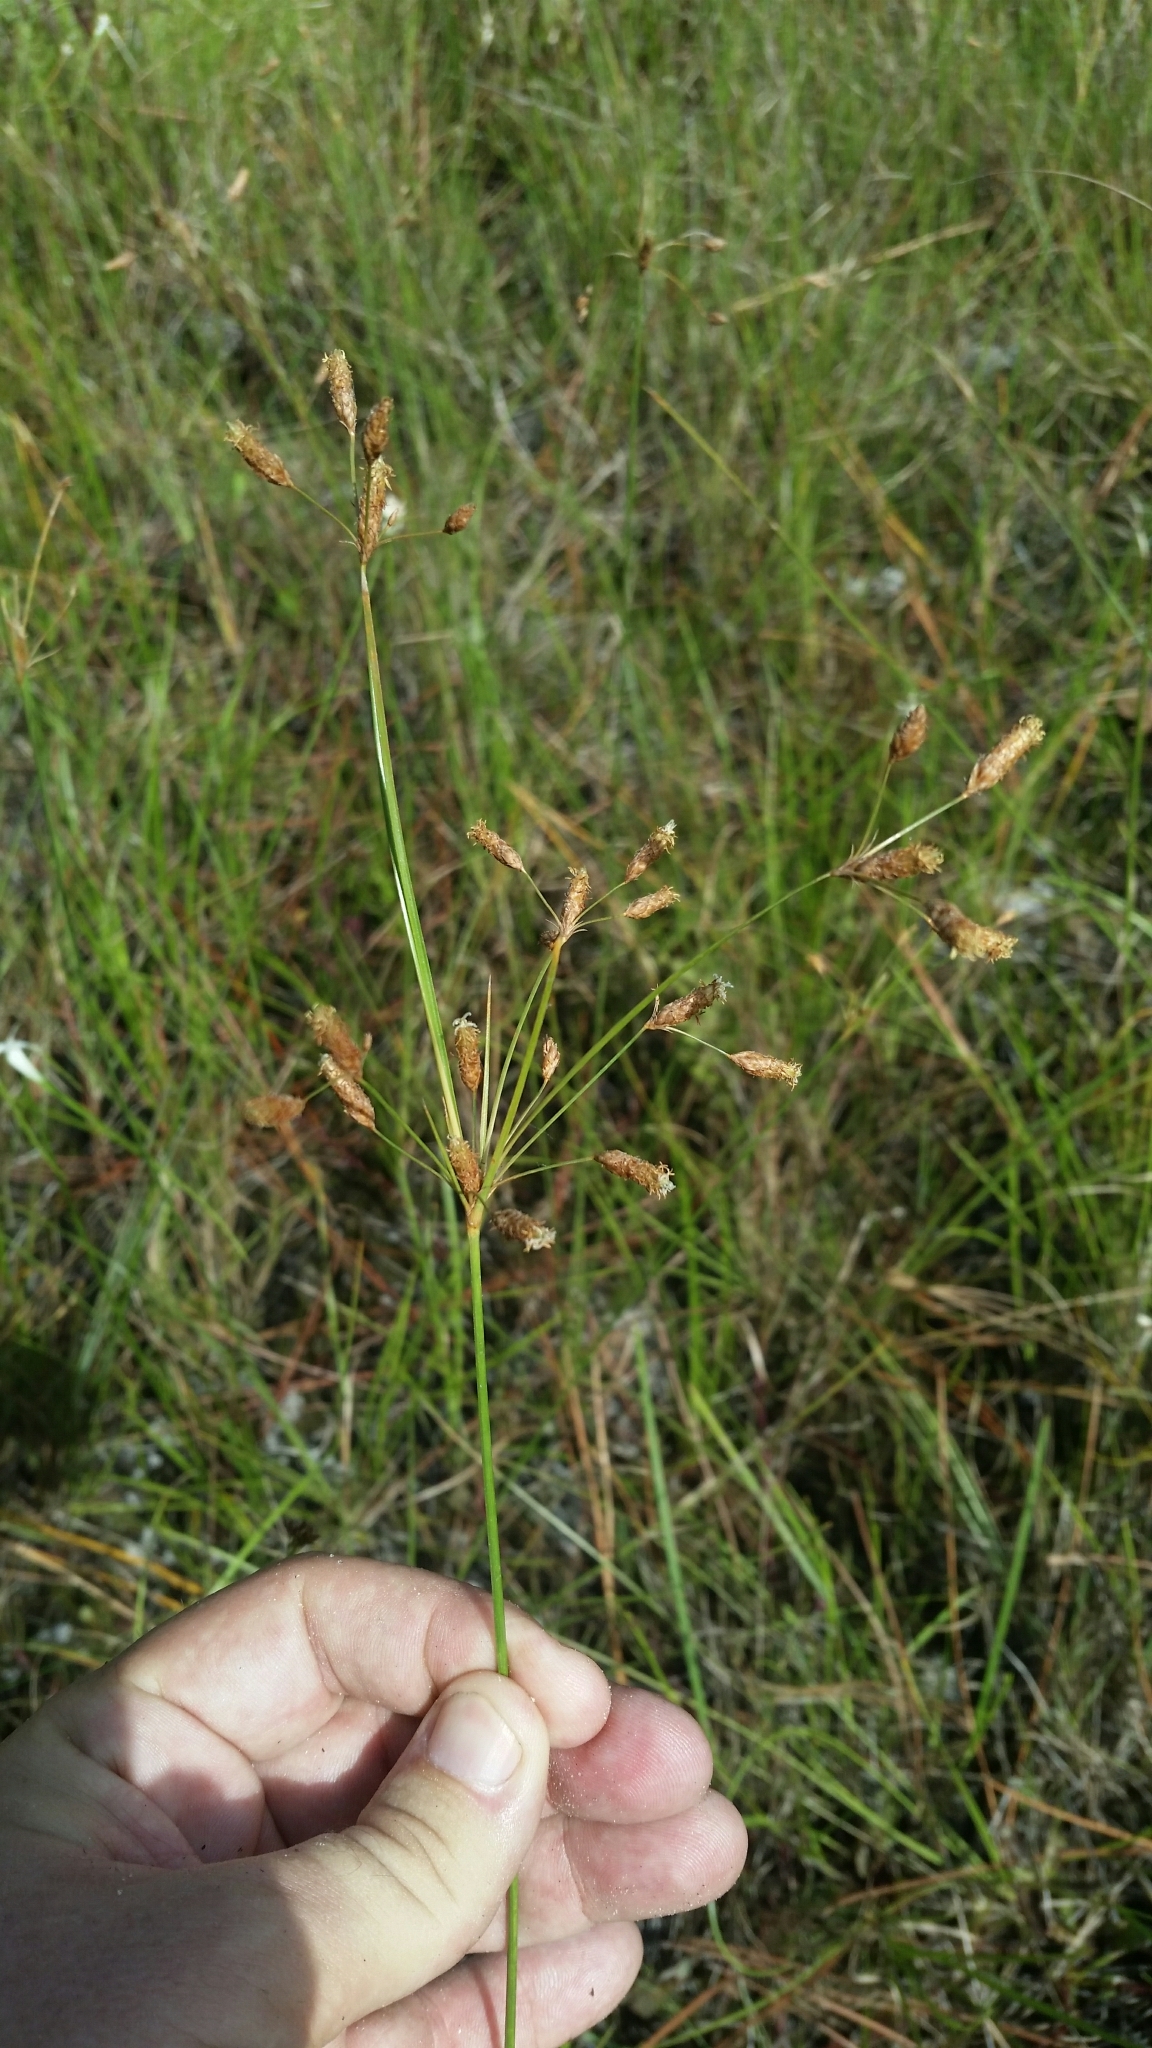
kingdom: Plantae
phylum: Tracheophyta
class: Liliopsida
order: Poales
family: Cyperaceae
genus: Fimbristylis
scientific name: Fimbristylis caroliniana
